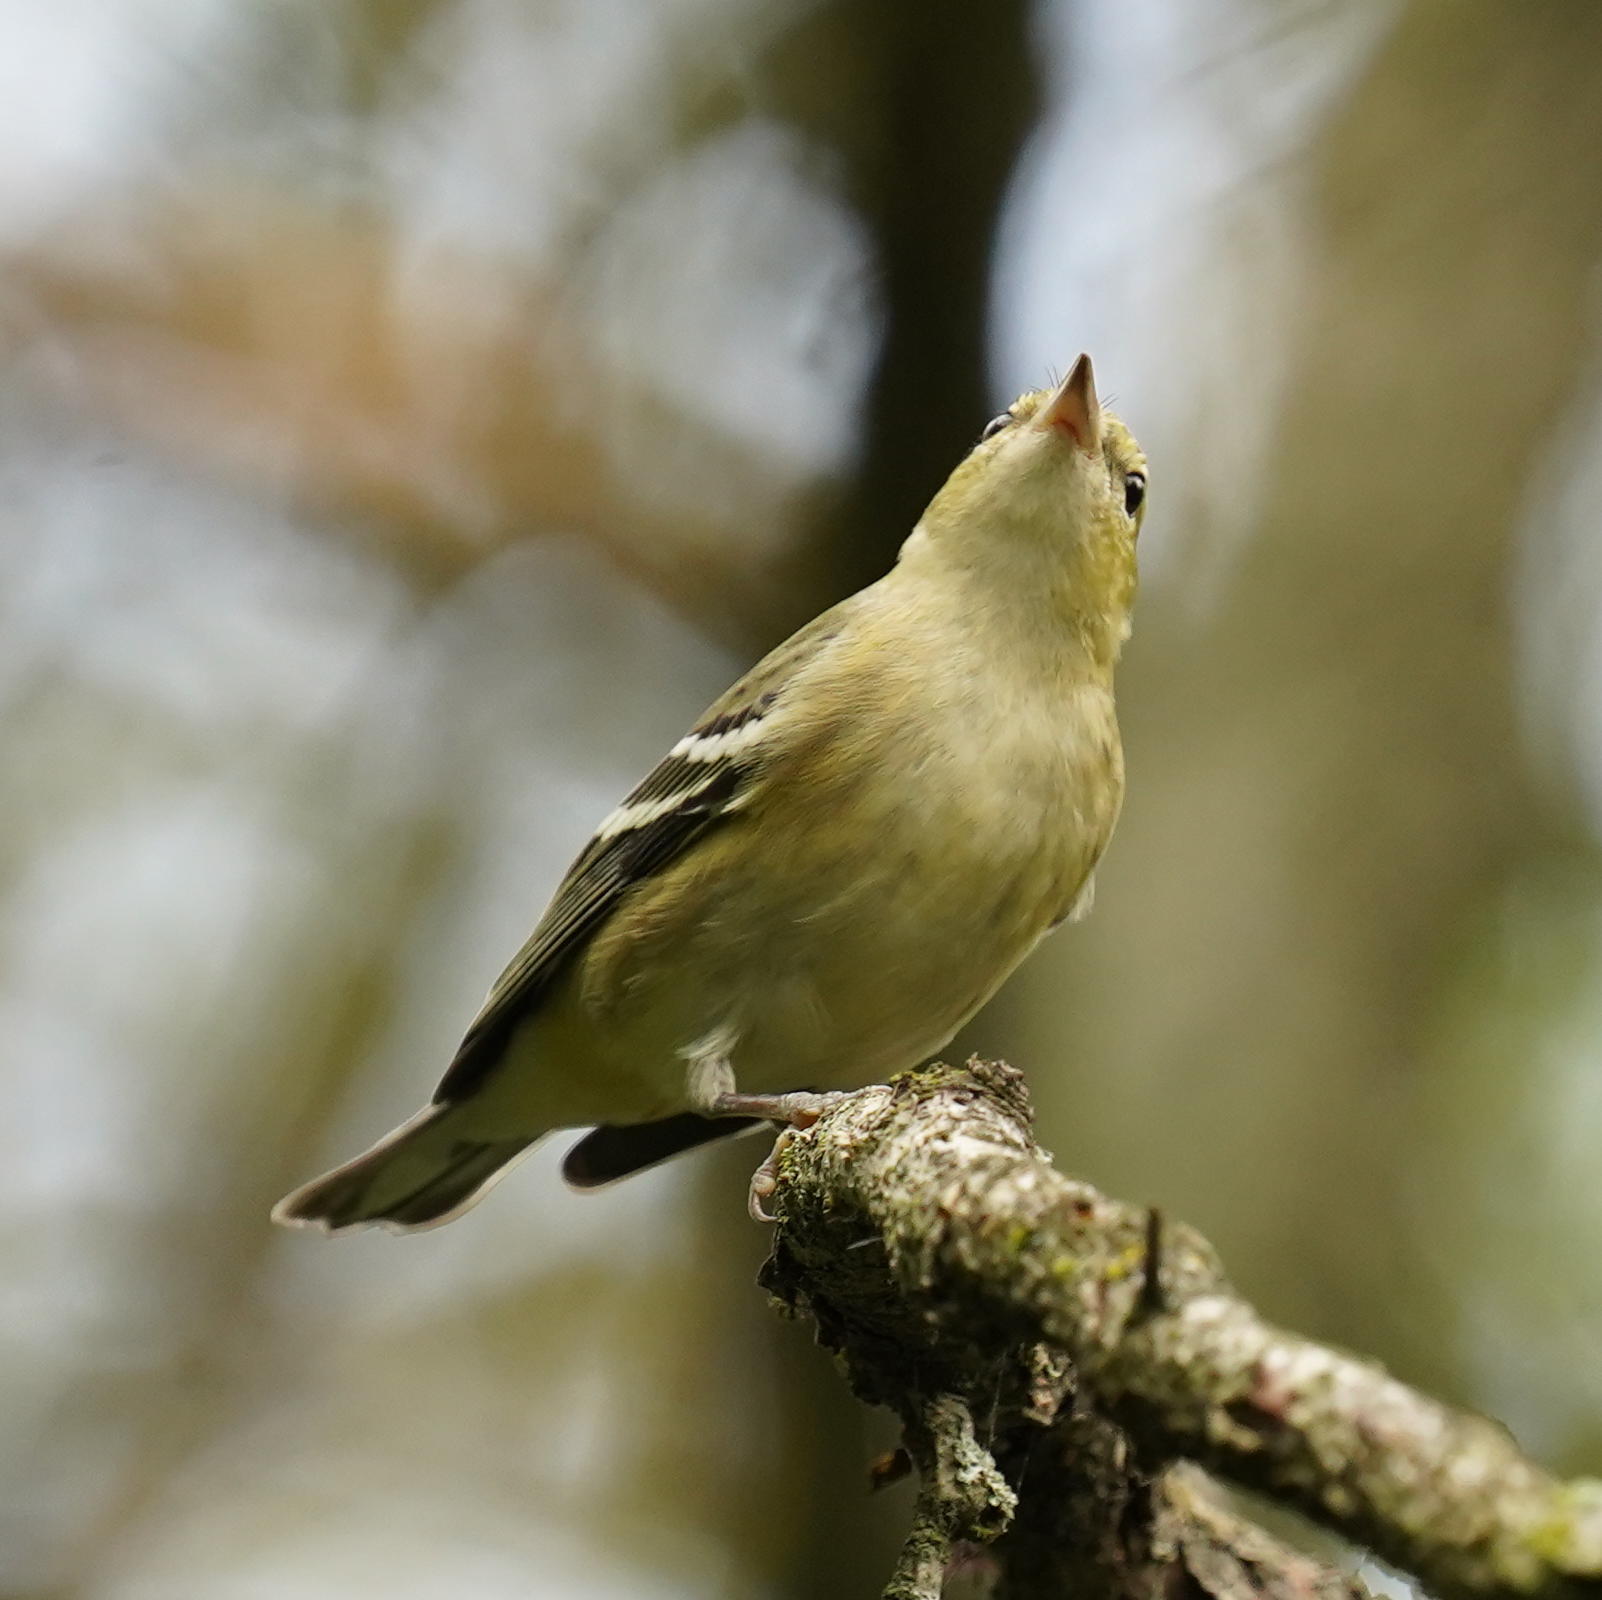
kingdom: Animalia
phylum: Chordata
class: Aves
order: Passeriformes
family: Parulidae
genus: Setophaga
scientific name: Setophaga castanea
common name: Bay-breasted warbler
